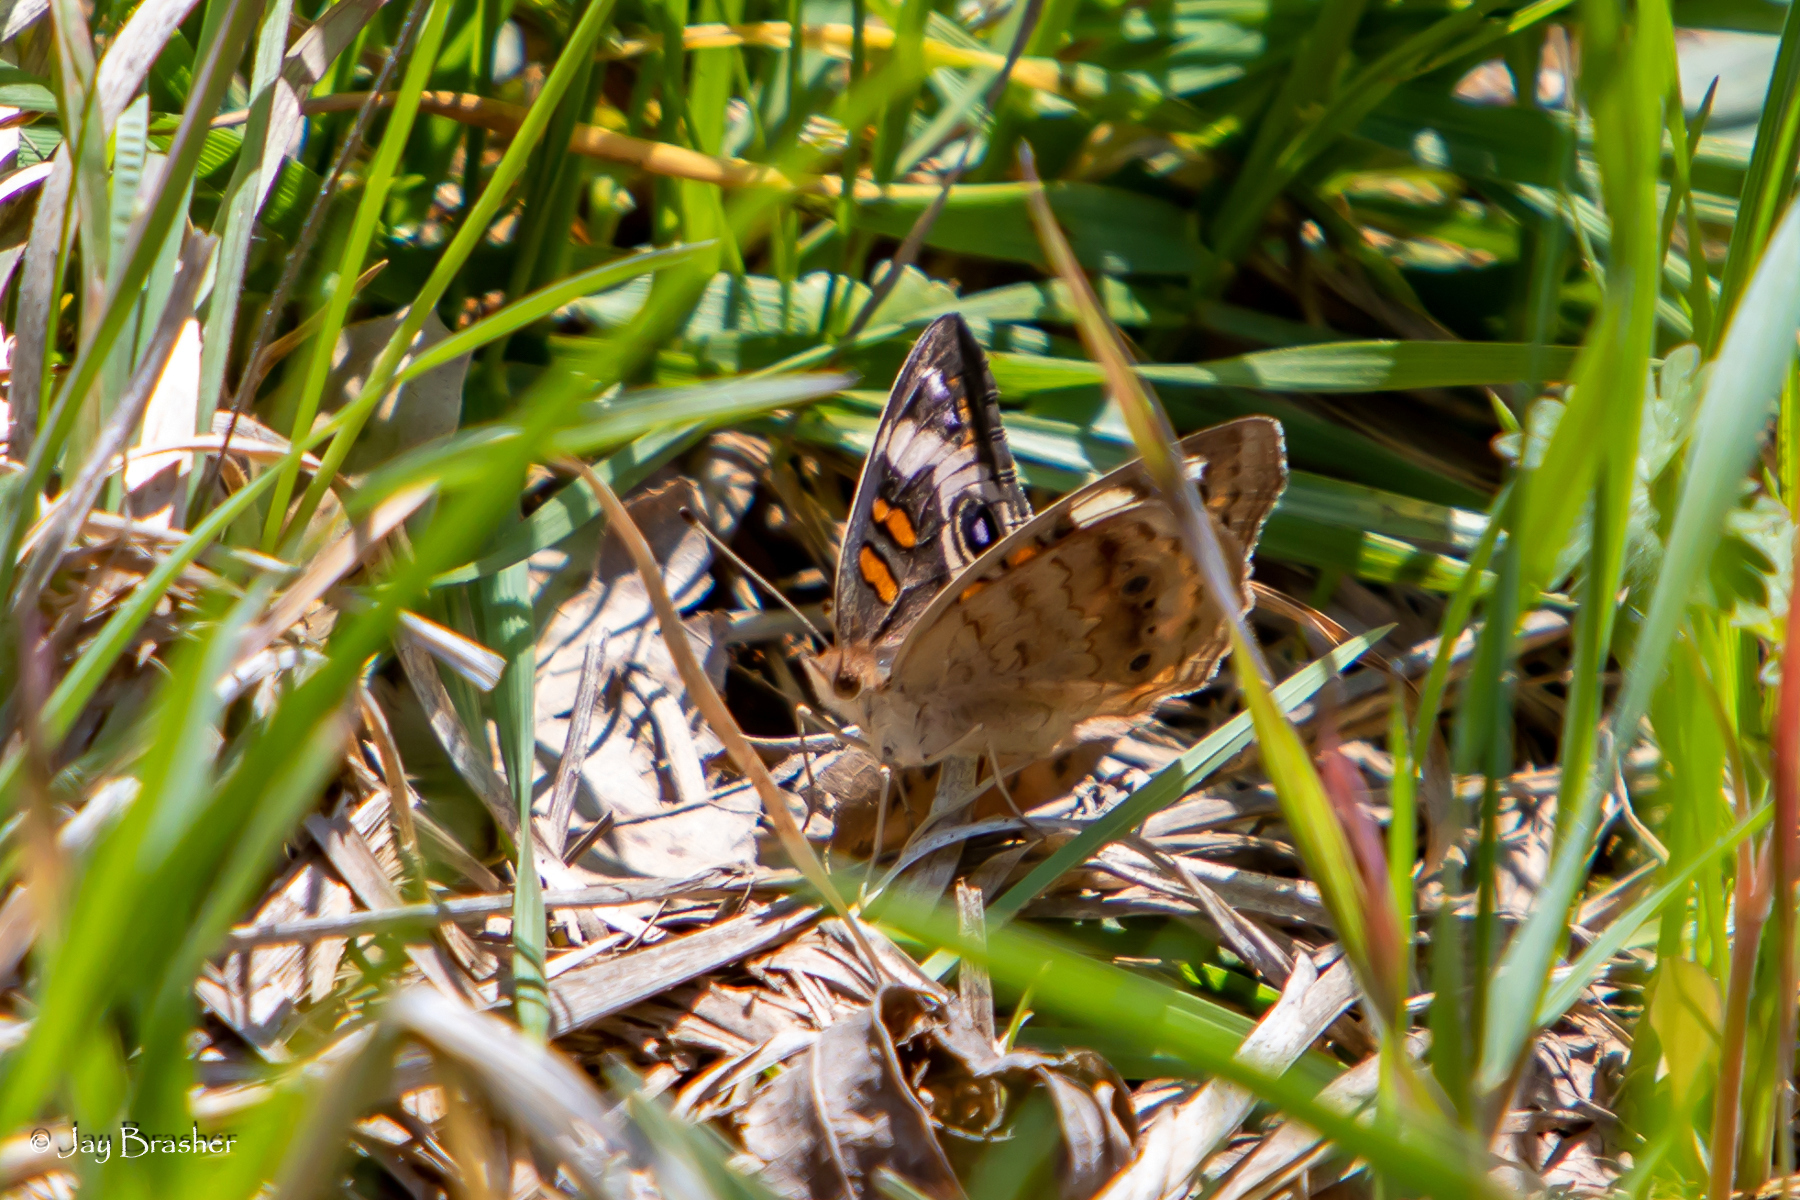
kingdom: Animalia
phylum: Arthropoda
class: Insecta
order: Lepidoptera
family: Nymphalidae
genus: Junonia
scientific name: Junonia coenia
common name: Common buckeye
